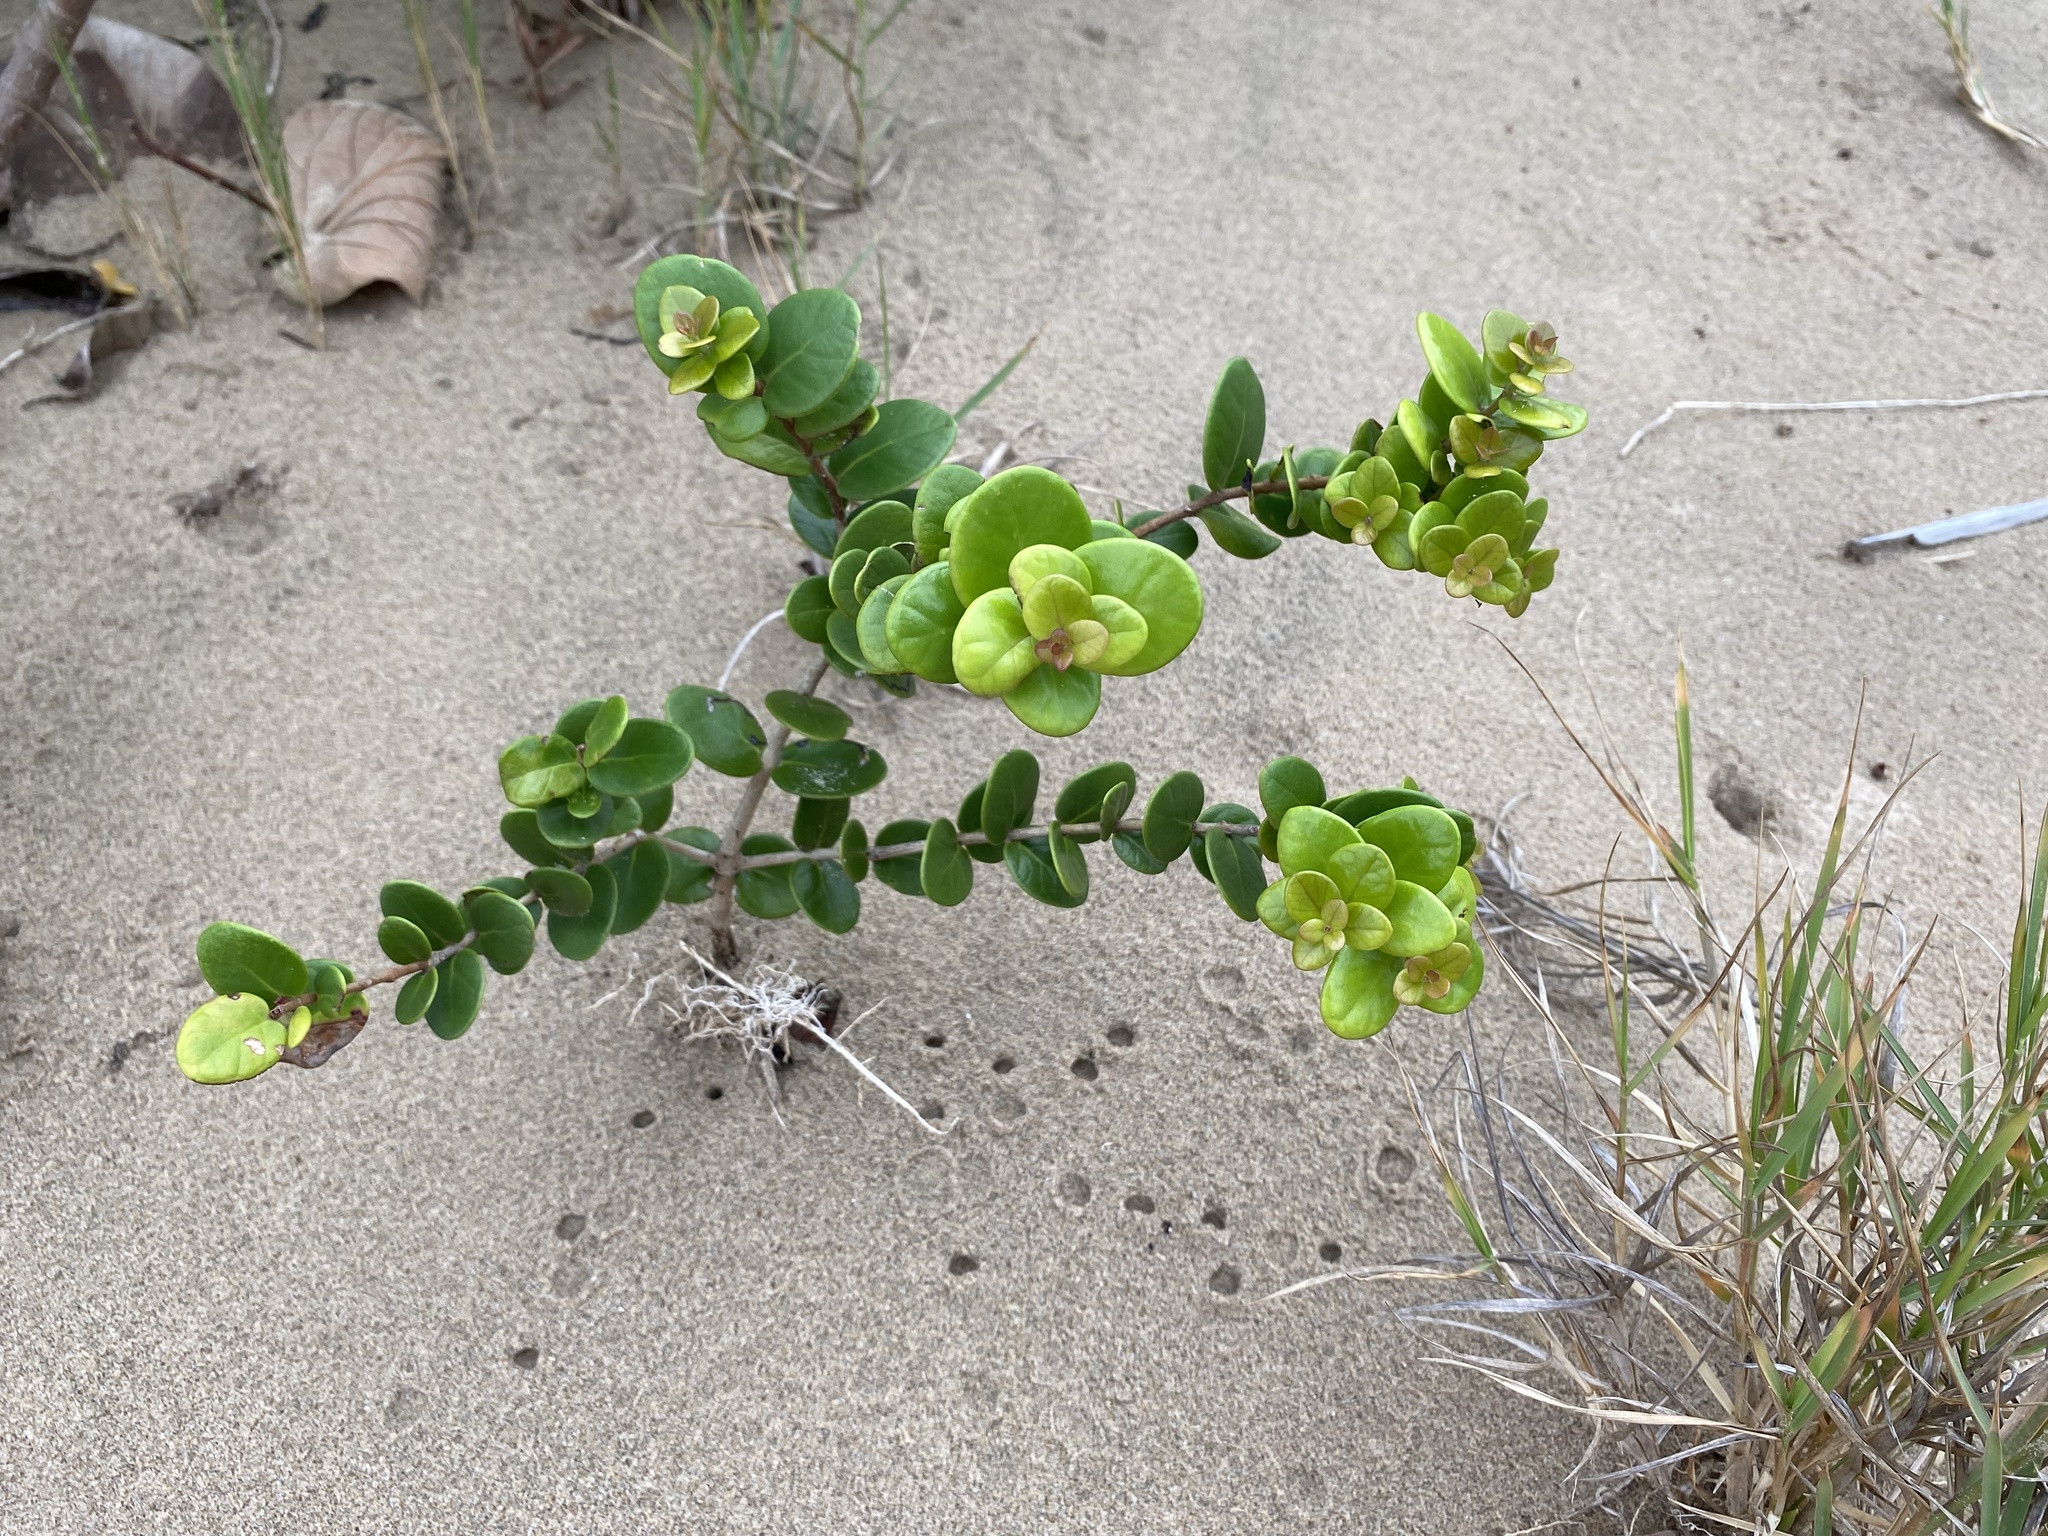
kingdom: Plantae
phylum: Tracheophyta
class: Magnoliopsida
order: Myrtales
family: Myrtaceae
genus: Eugenia
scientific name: Eugenia capensis
